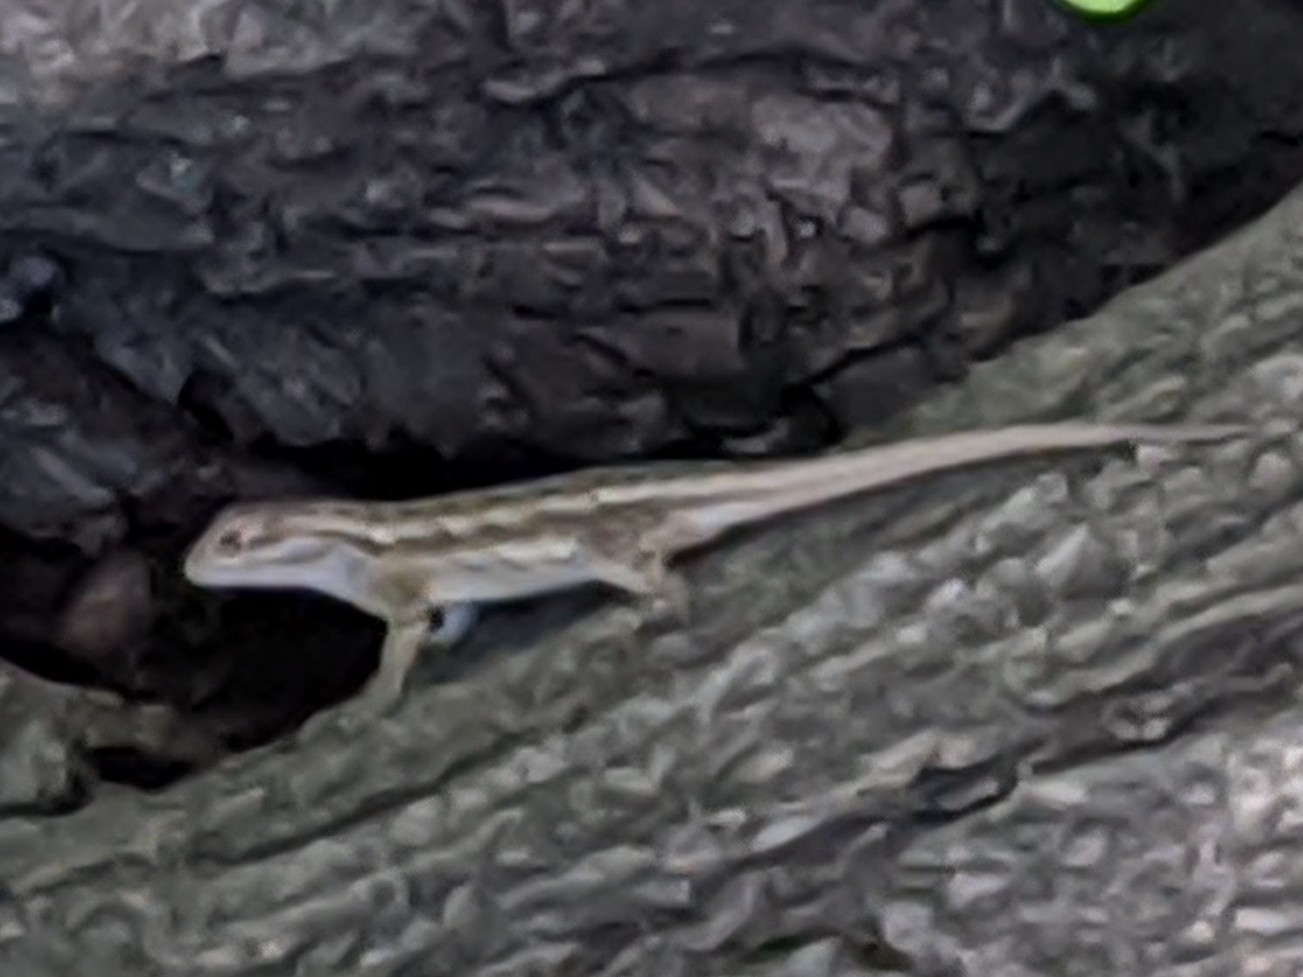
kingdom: Animalia
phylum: Chordata
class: Squamata
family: Phrynosomatidae
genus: Sceloporus
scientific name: Sceloporus occidentalis
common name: Western fence lizard
